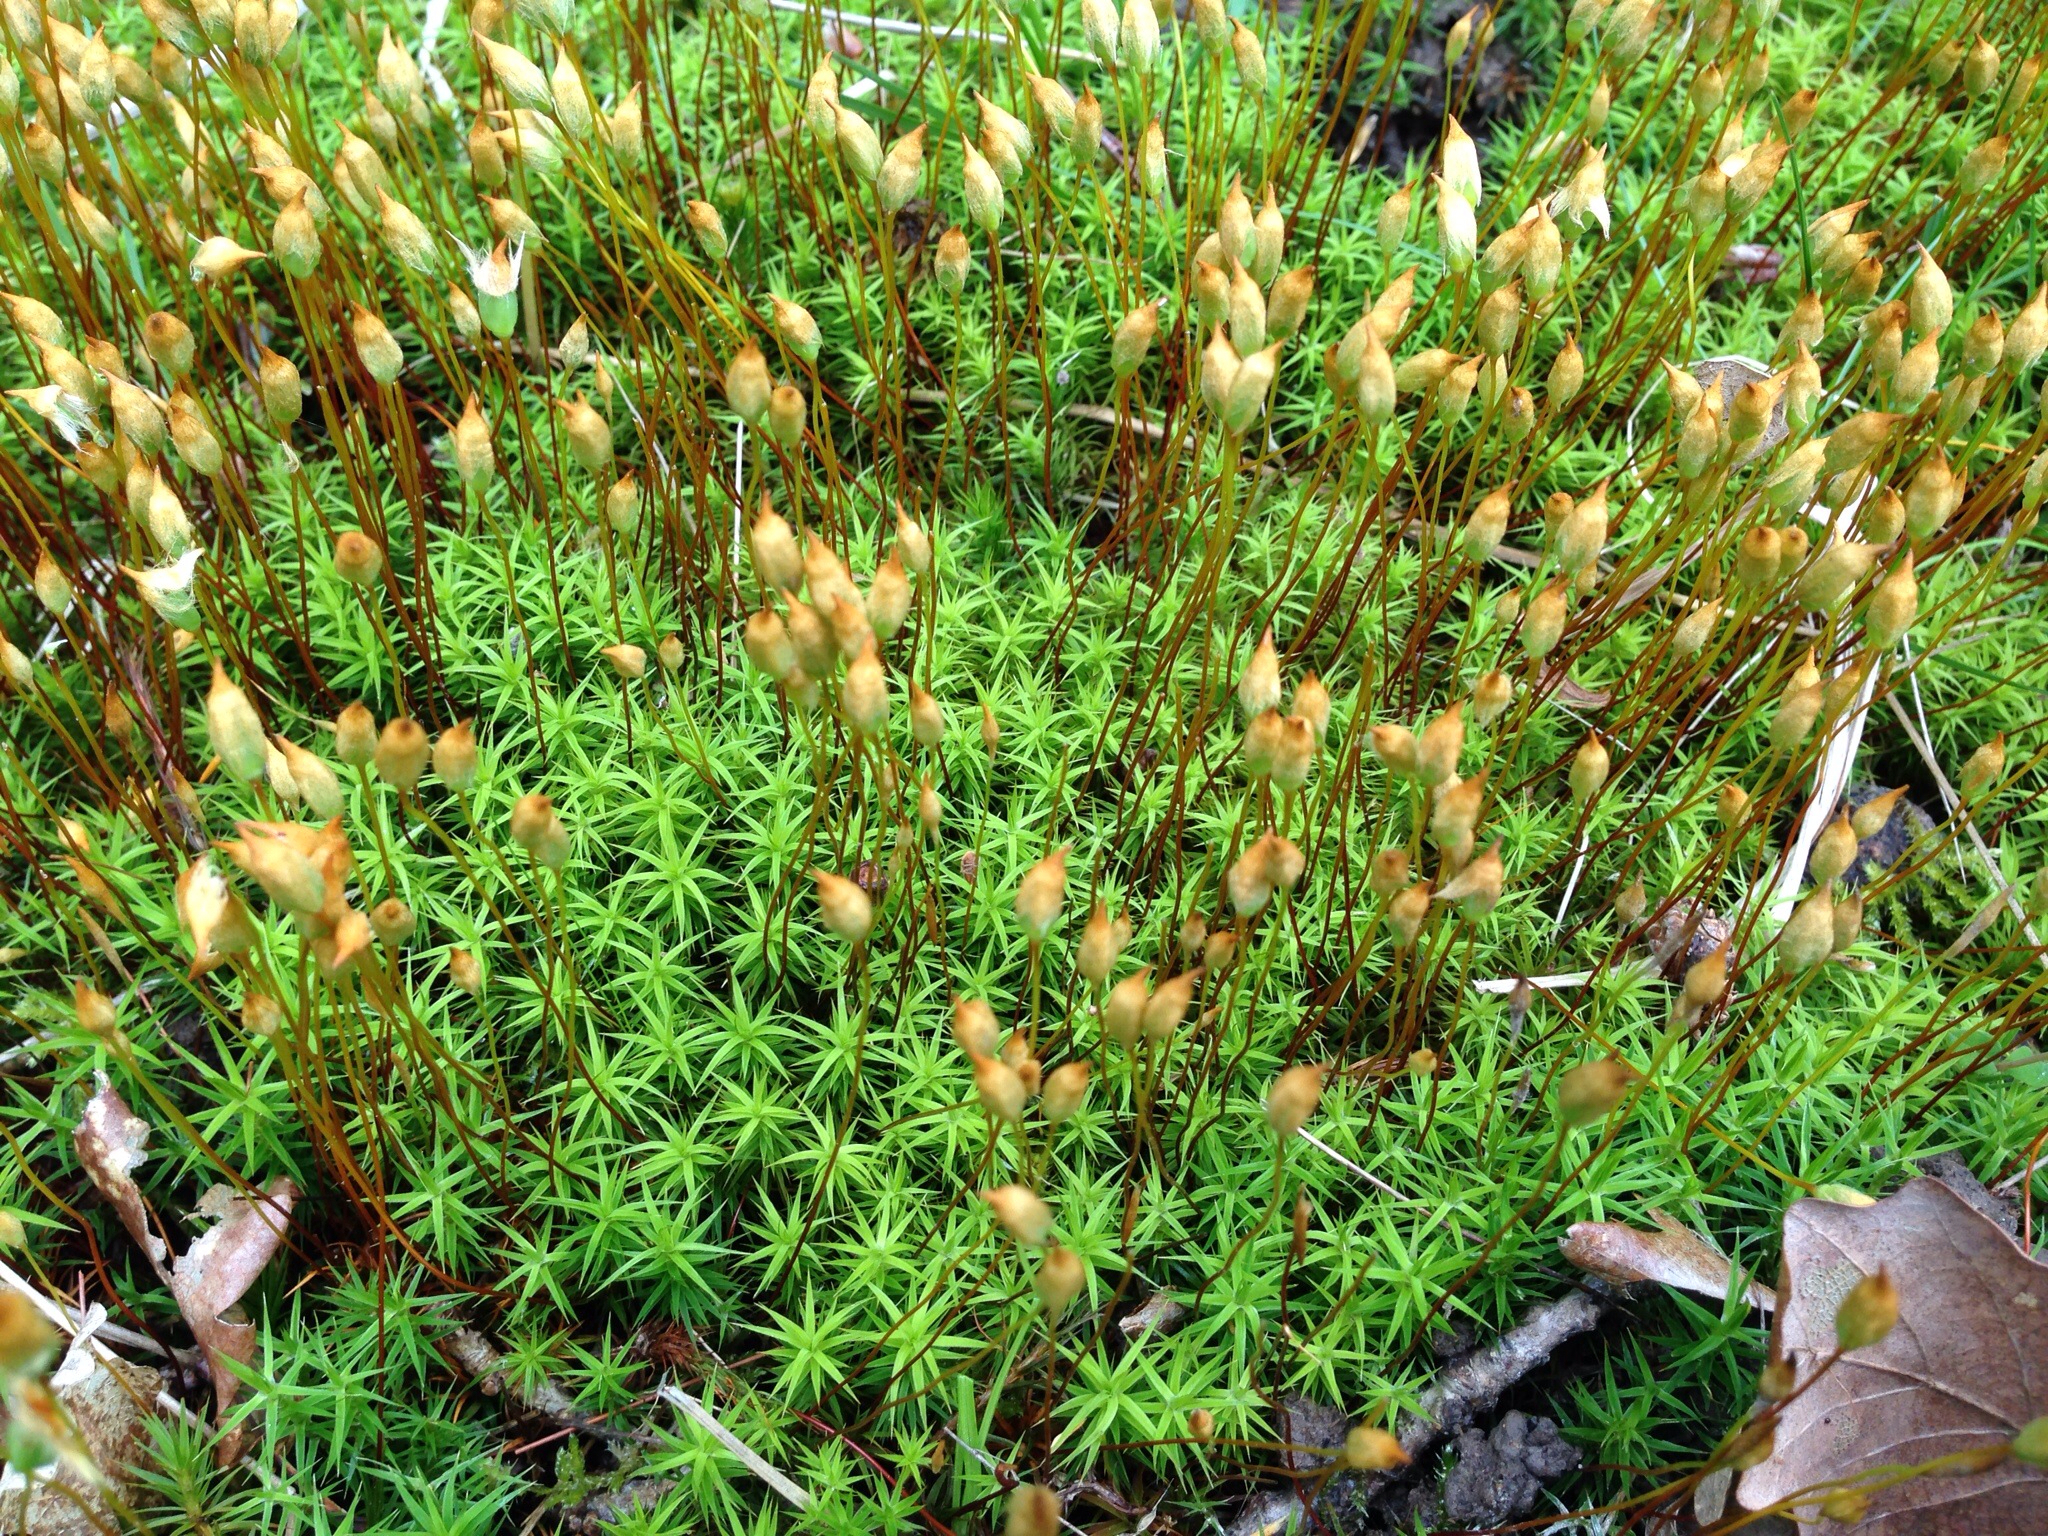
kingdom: Plantae
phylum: Bryophyta
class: Polytrichopsida
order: Polytrichales
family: Polytrichaceae
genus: Polytrichum
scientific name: Polytrichum formosum
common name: Bank haircap moss
